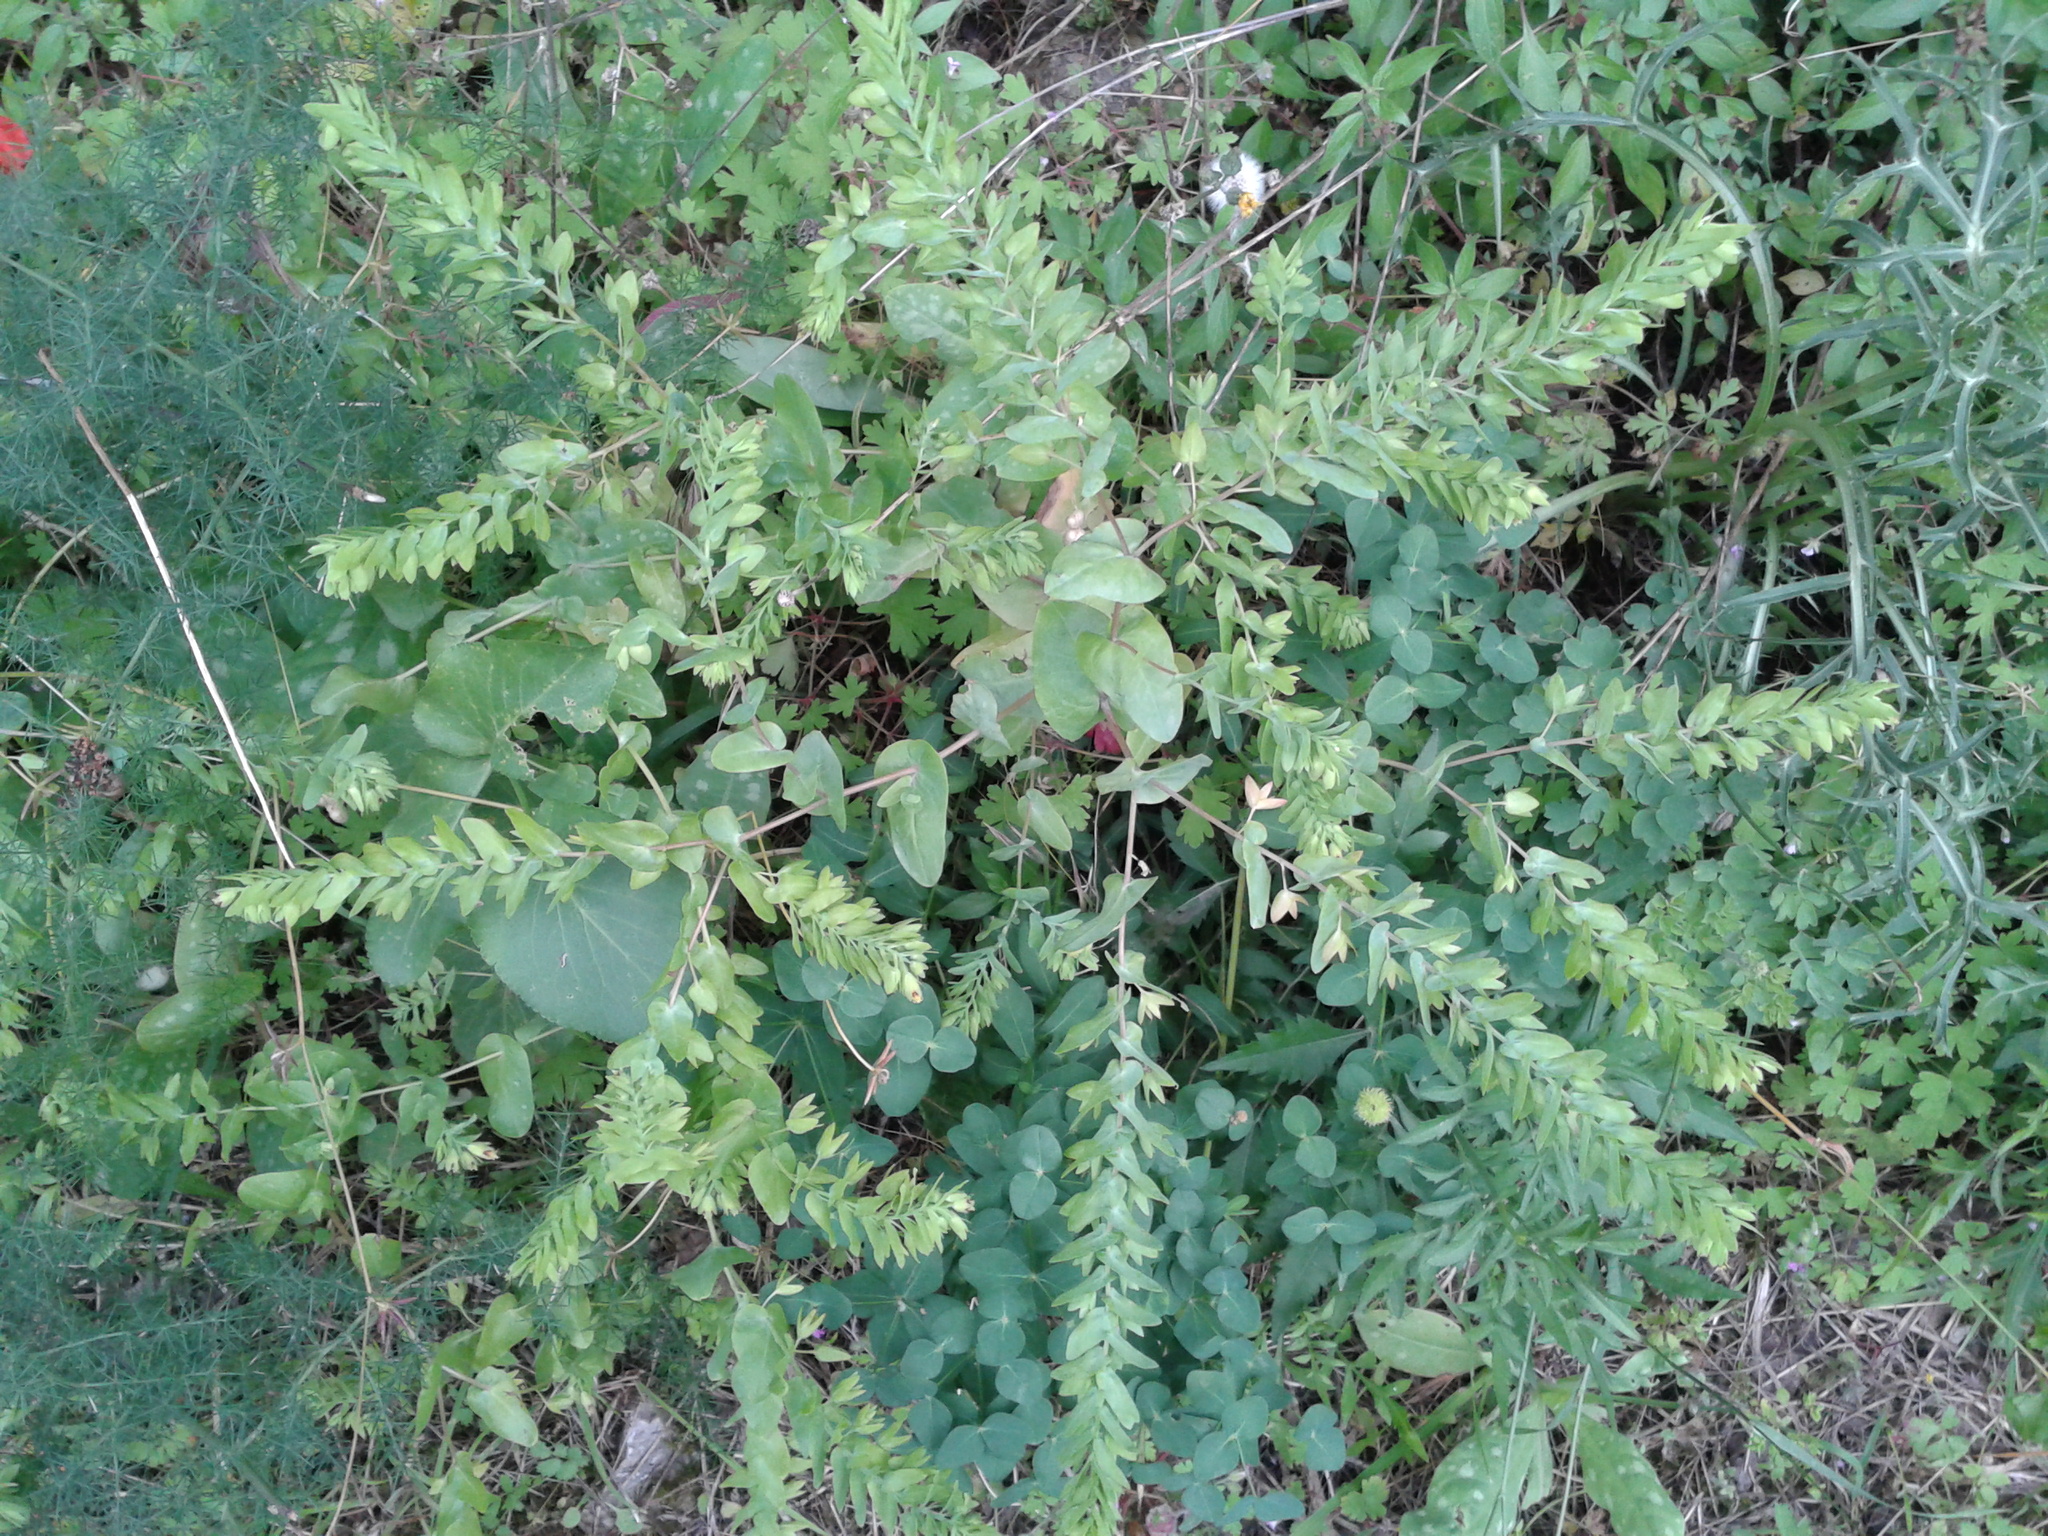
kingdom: Plantae
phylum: Tracheophyta
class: Magnoliopsida
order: Boraginales
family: Boraginaceae
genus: Cerinthe
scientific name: Cerinthe minor
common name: Lesser honeywort
